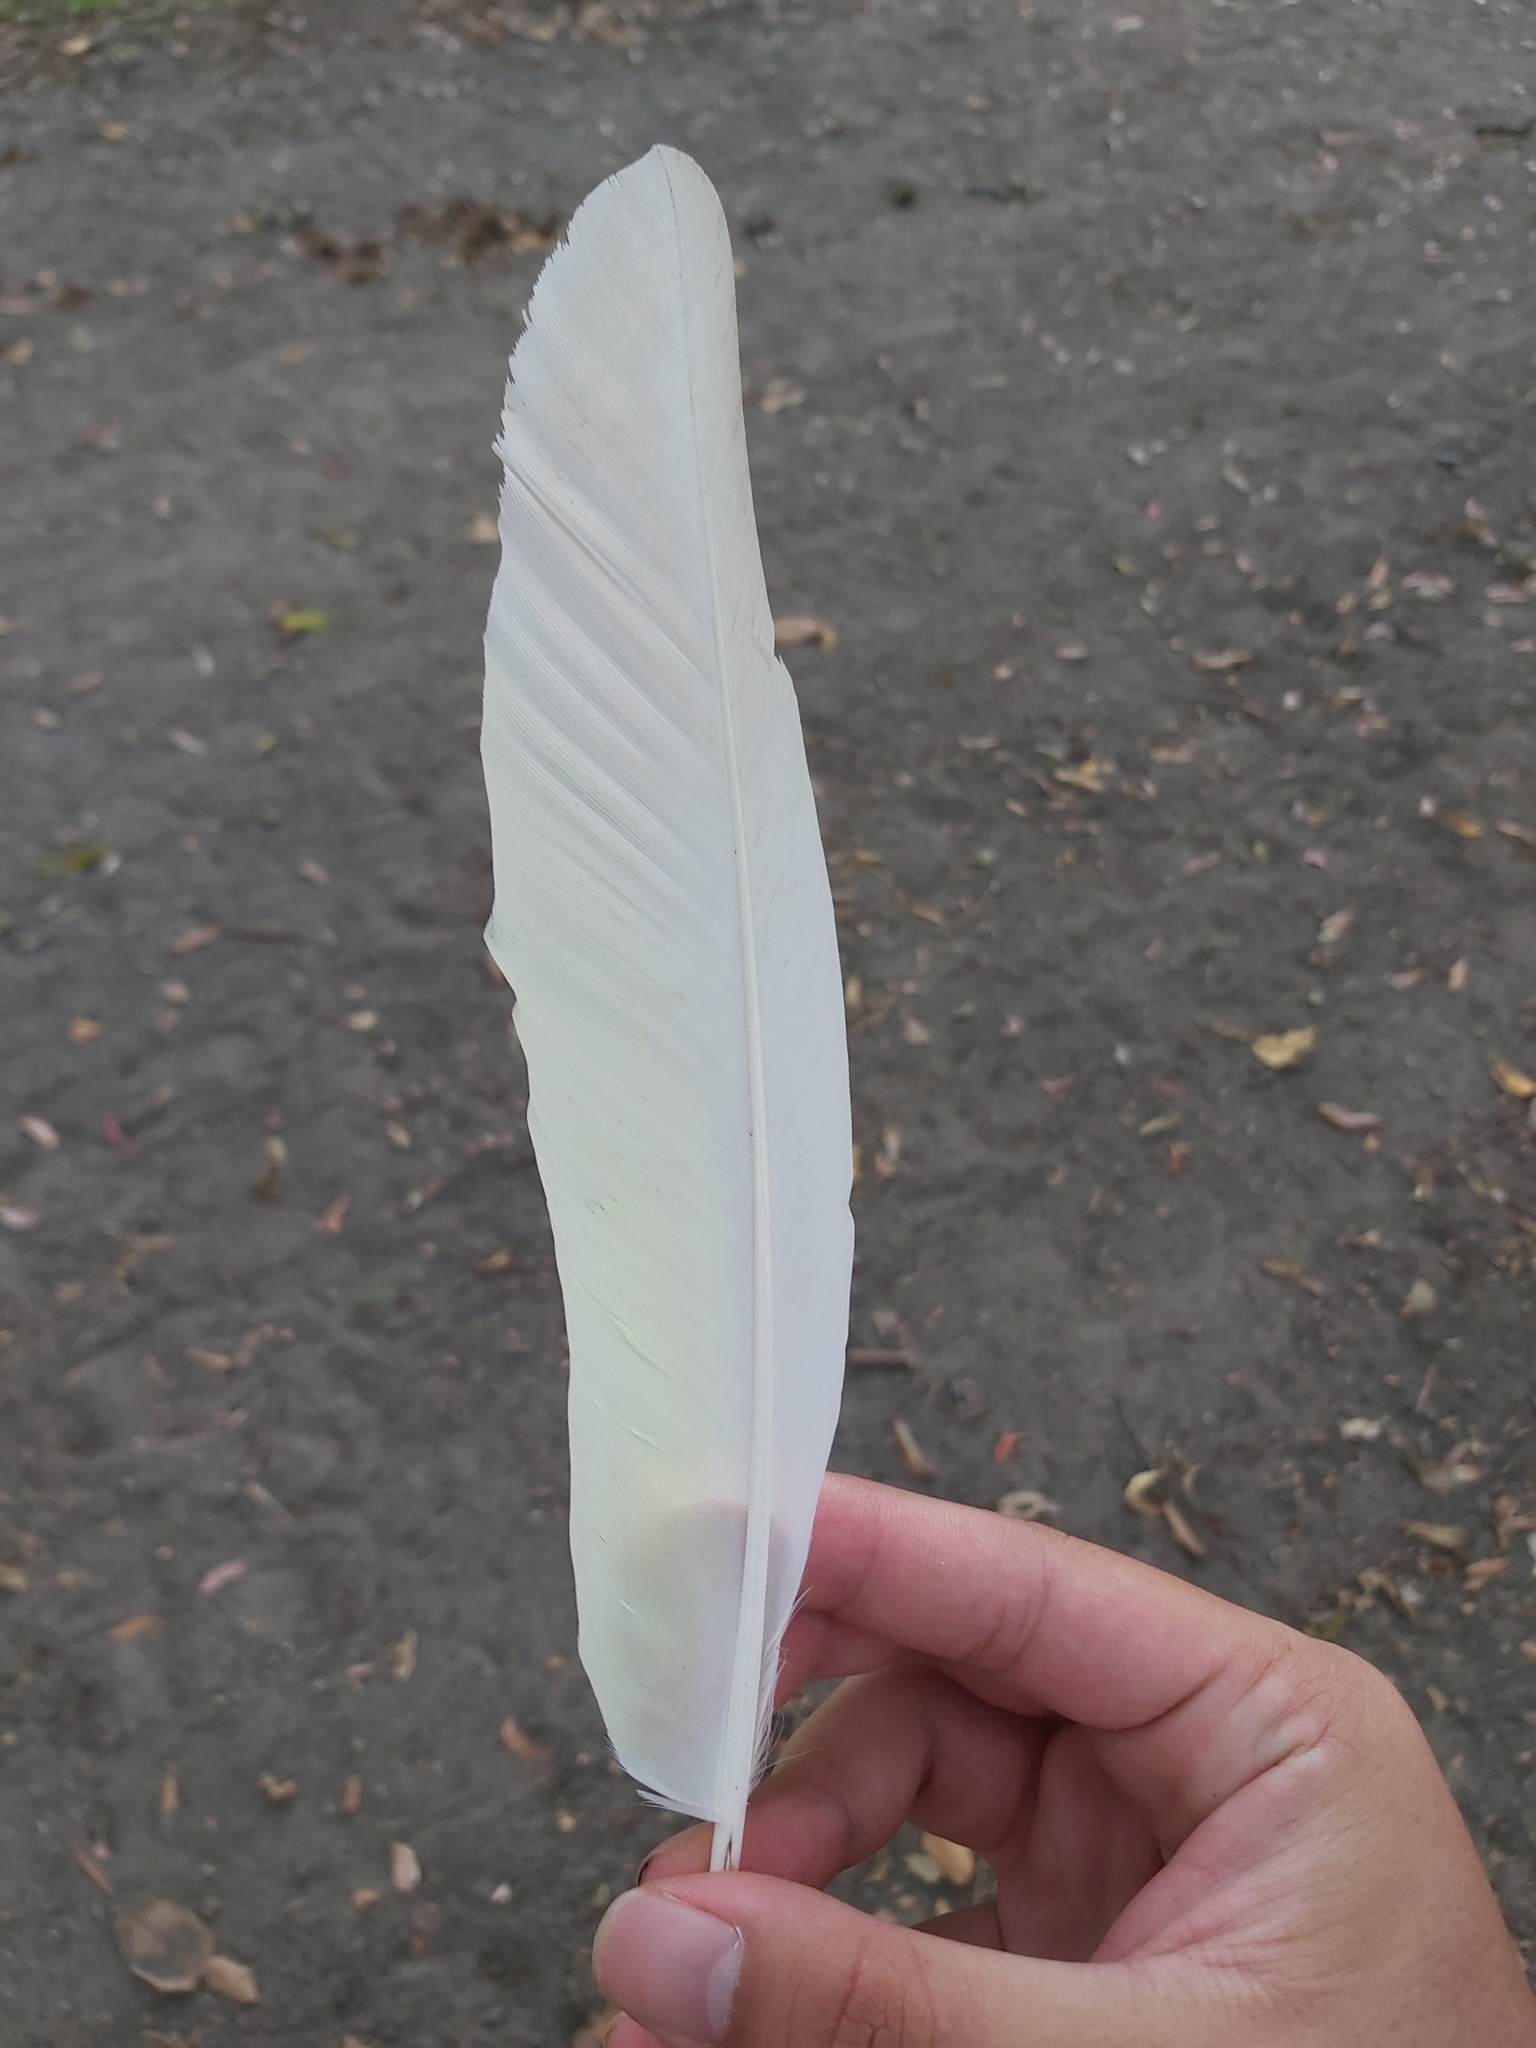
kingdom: Animalia
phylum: Chordata
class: Aves
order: Psittaciformes
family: Psittacidae
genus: Cacatua
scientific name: Cacatua galerita
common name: Sulphur-crested cockatoo
